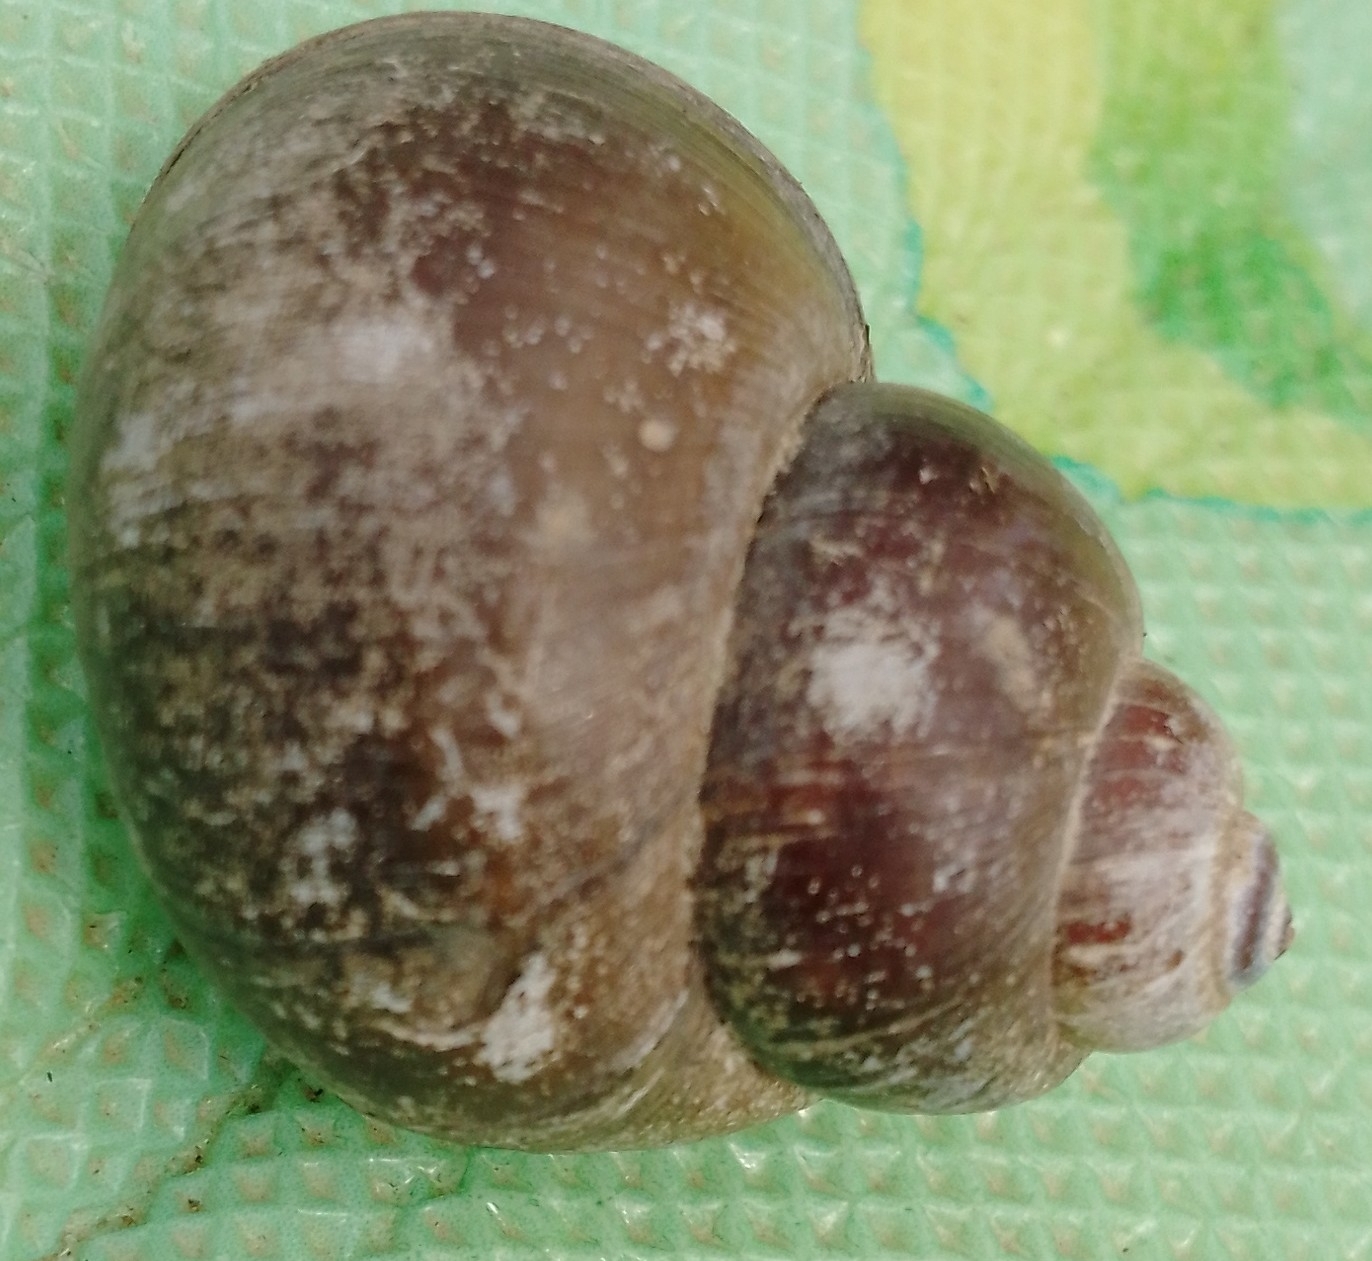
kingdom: Animalia
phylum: Mollusca
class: Gastropoda
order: Architaenioglossa
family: Viviparidae
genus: Viviparus
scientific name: Viviparus viviparus
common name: River snail
